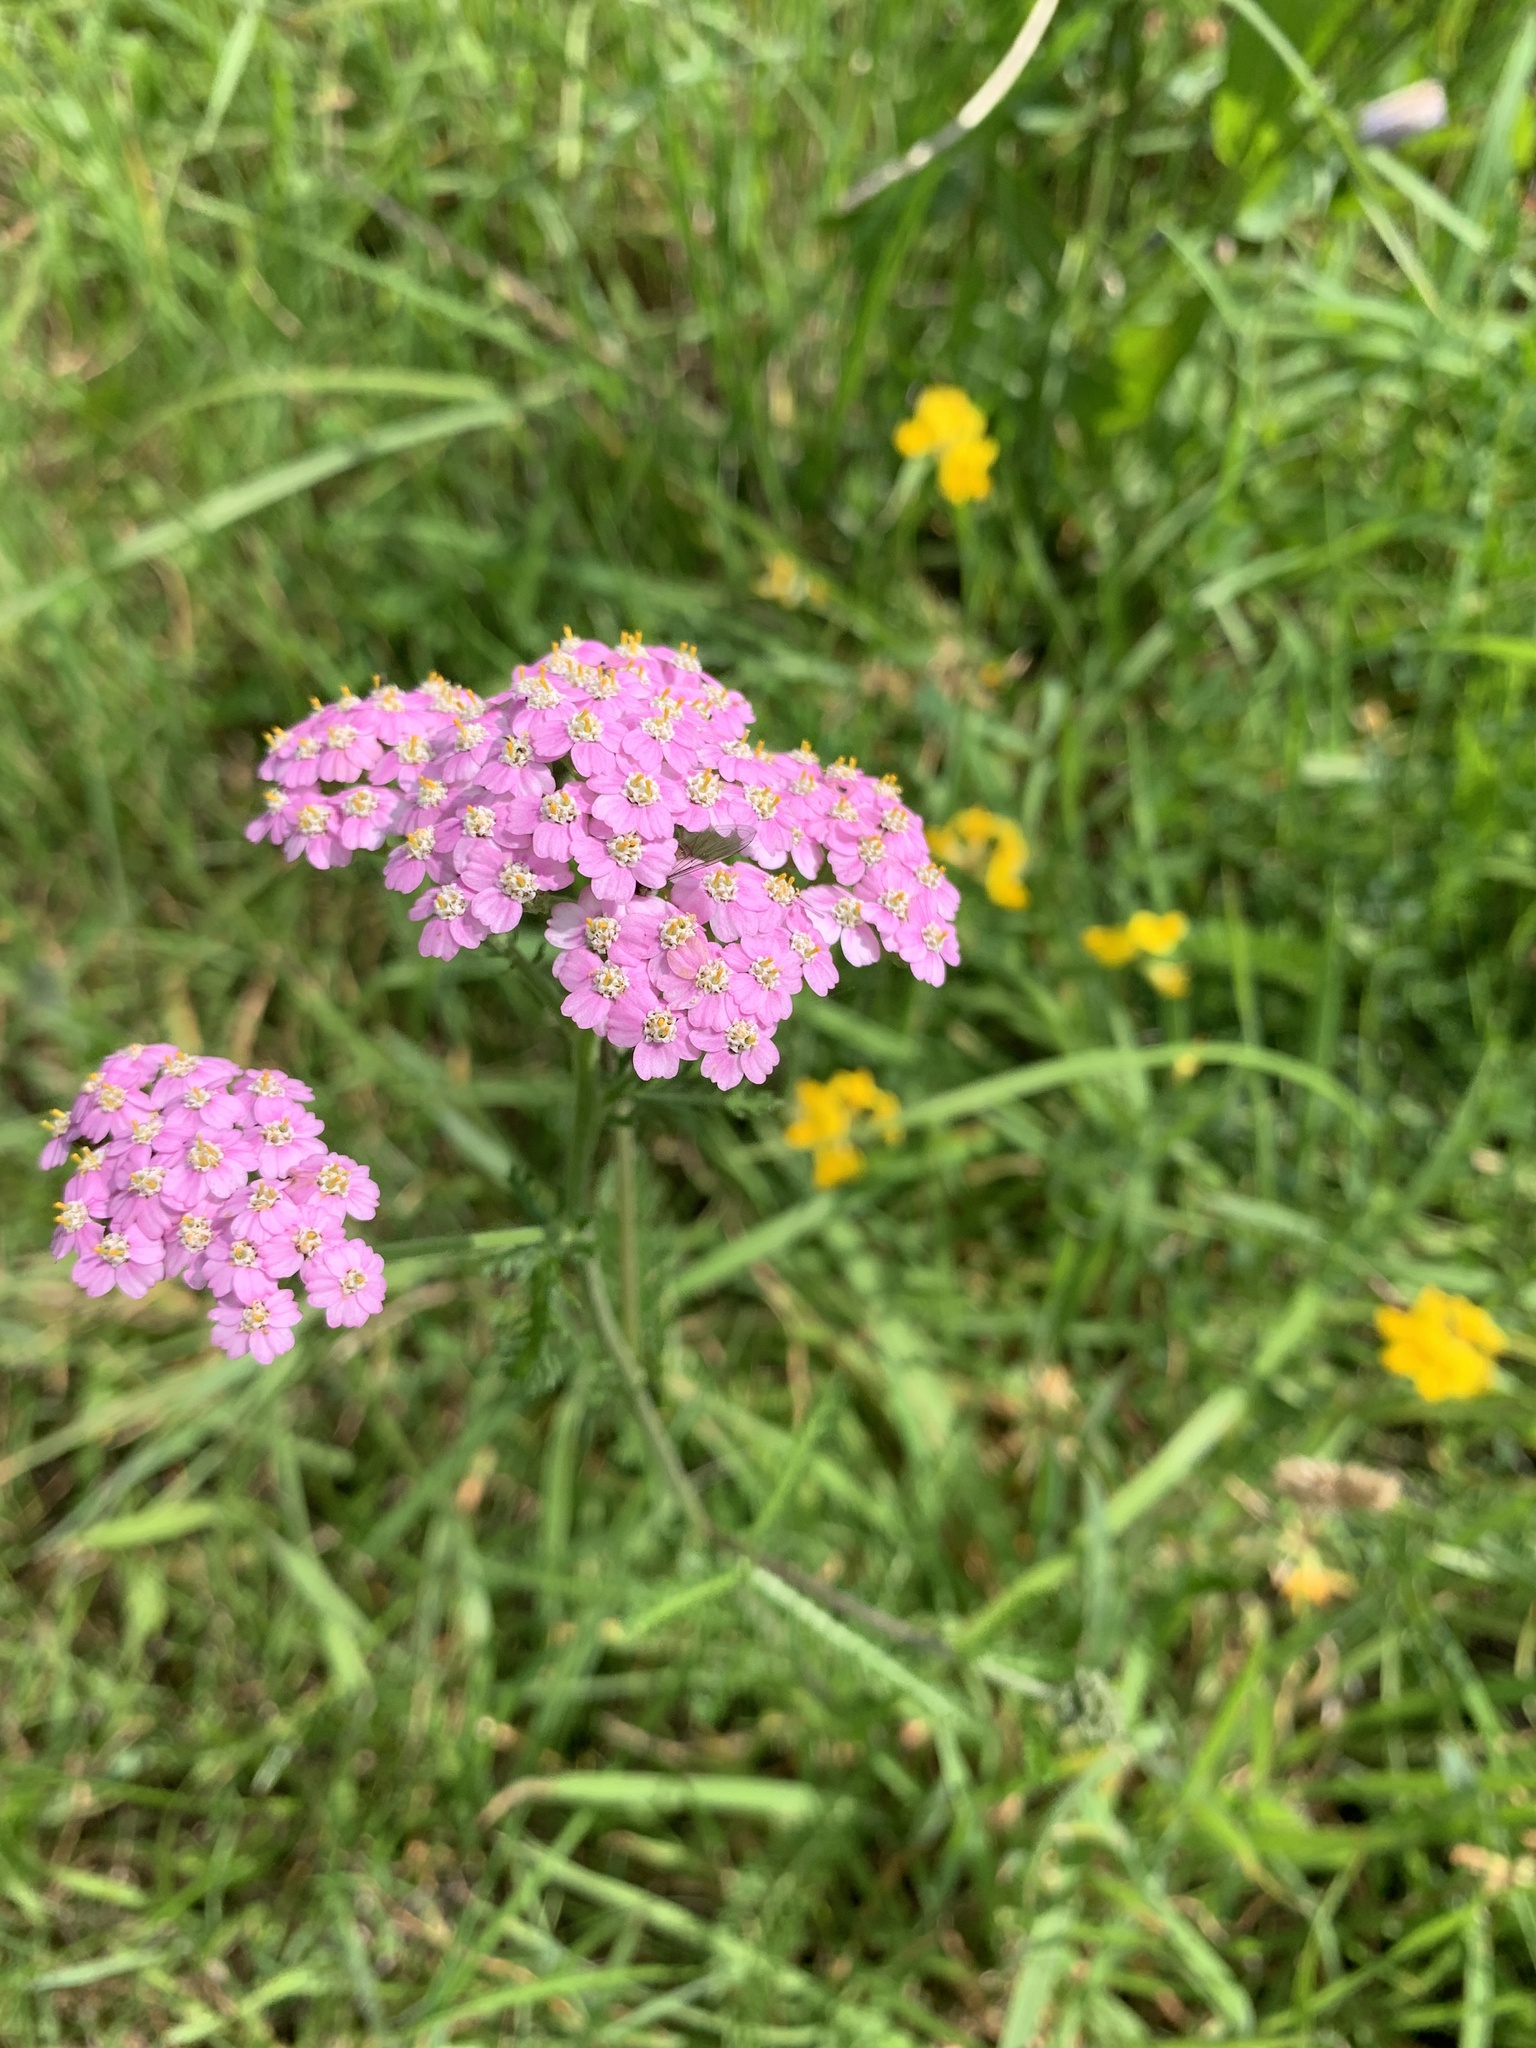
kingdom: Plantae
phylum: Tracheophyta
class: Magnoliopsida
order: Asterales
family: Asteraceae
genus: Achillea
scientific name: Achillea millefolium
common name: Yarrow
